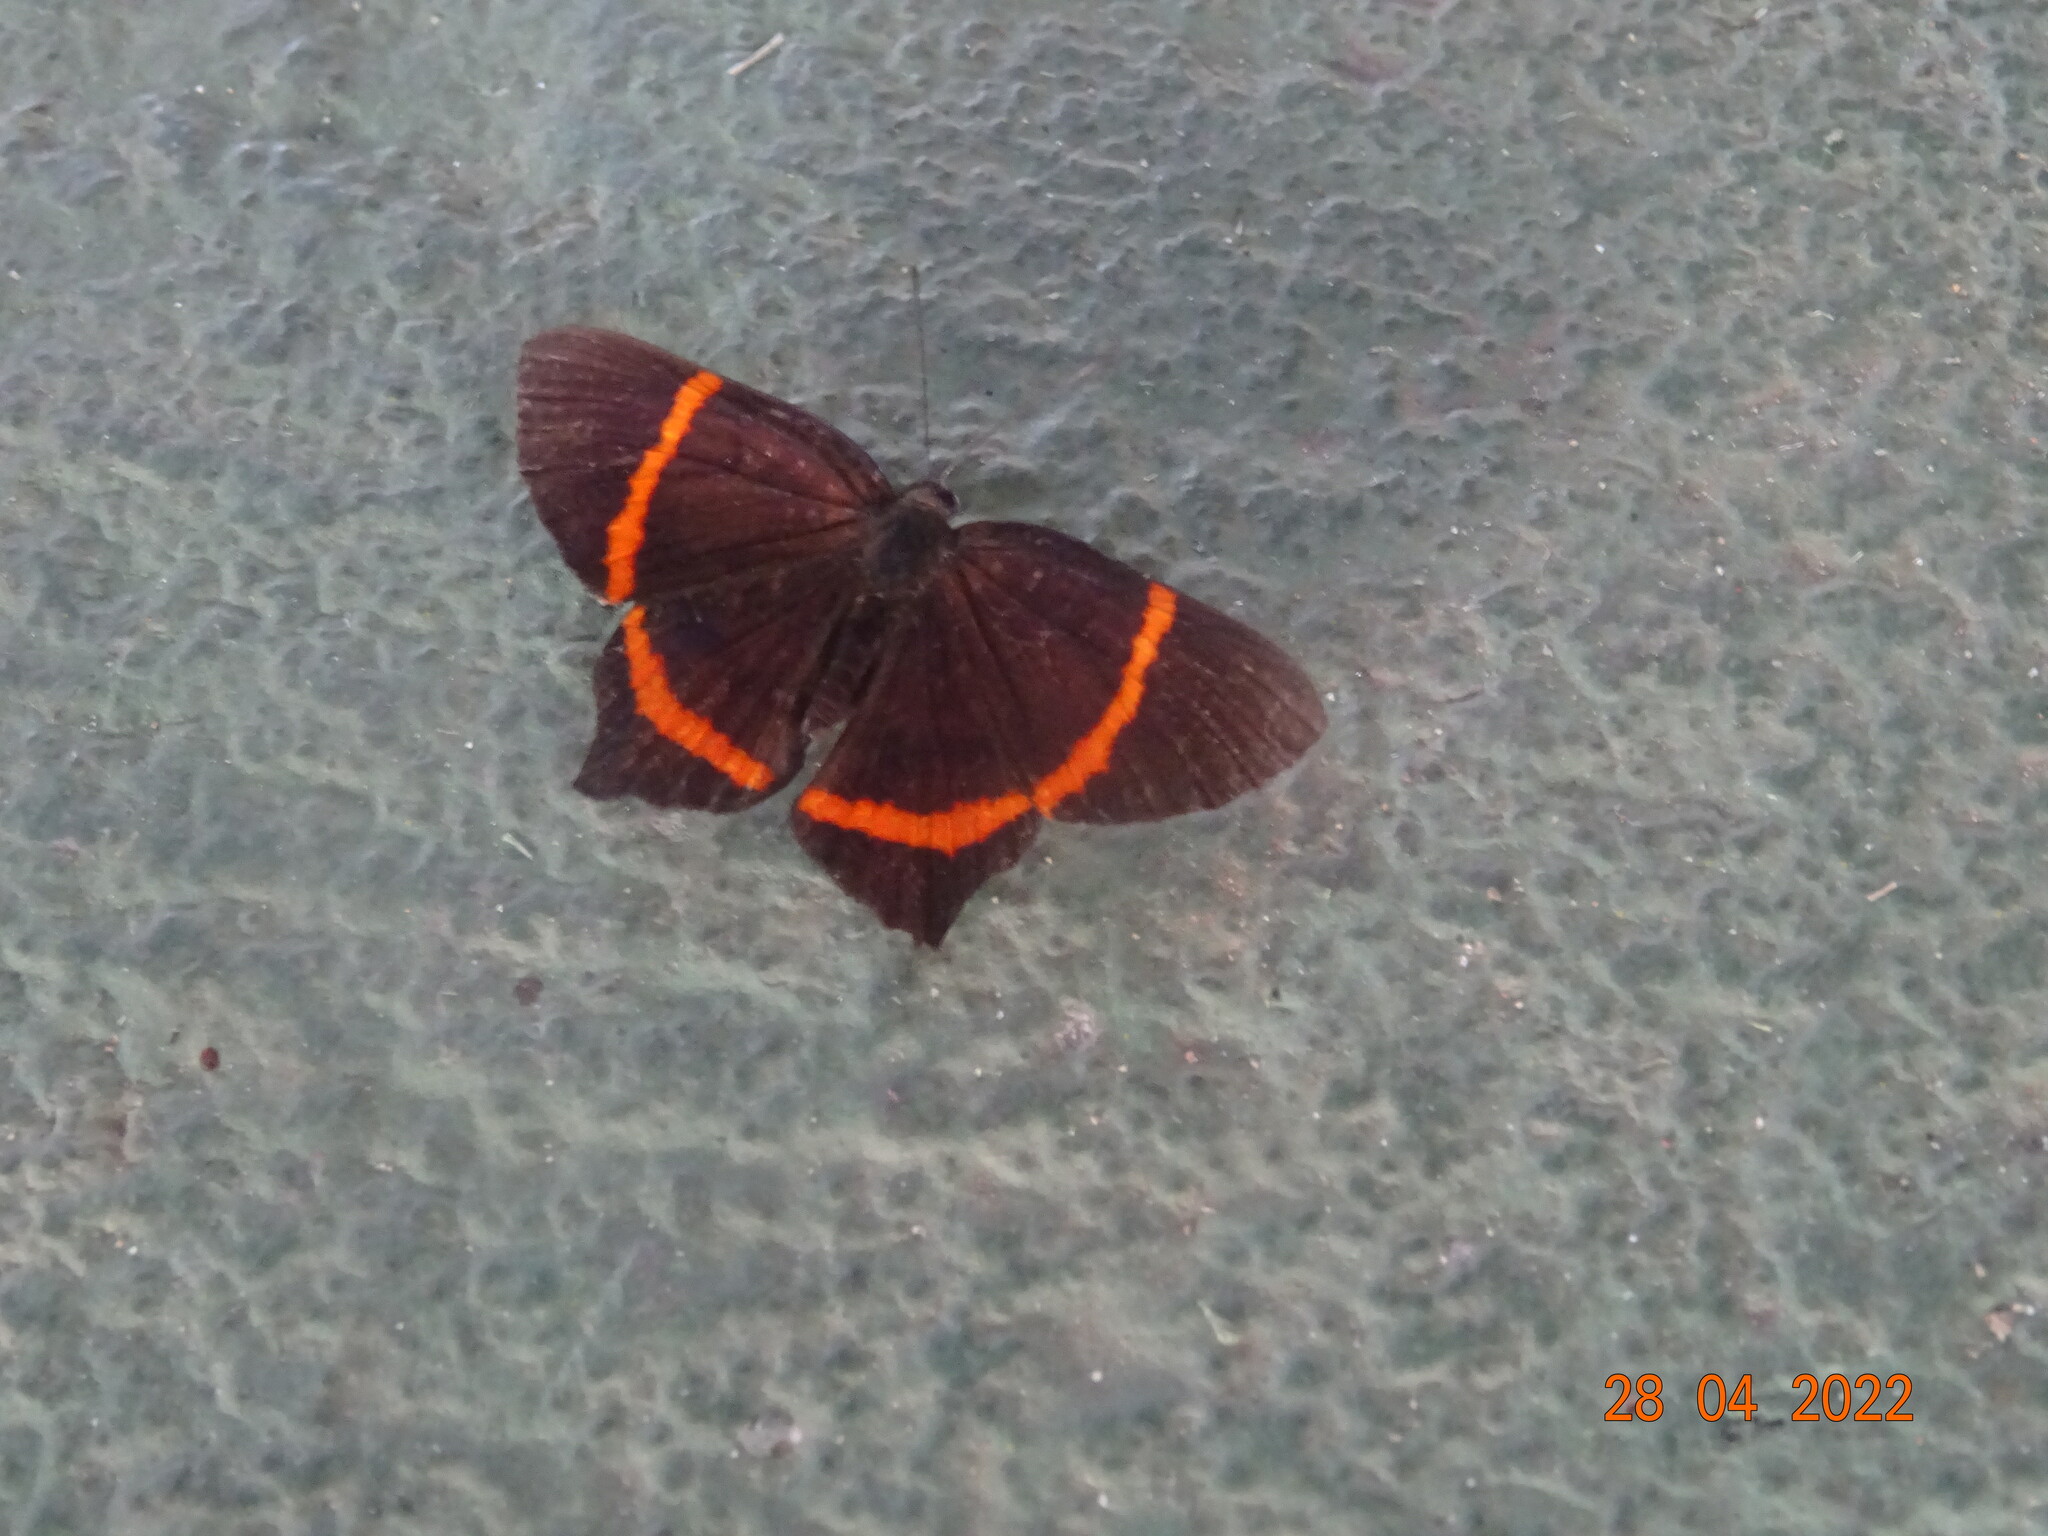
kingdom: Animalia
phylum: Arthropoda
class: Insecta
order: Lepidoptera
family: Riodinidae
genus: Riodina
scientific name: Riodina lysippus
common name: Lysippus metalmark
